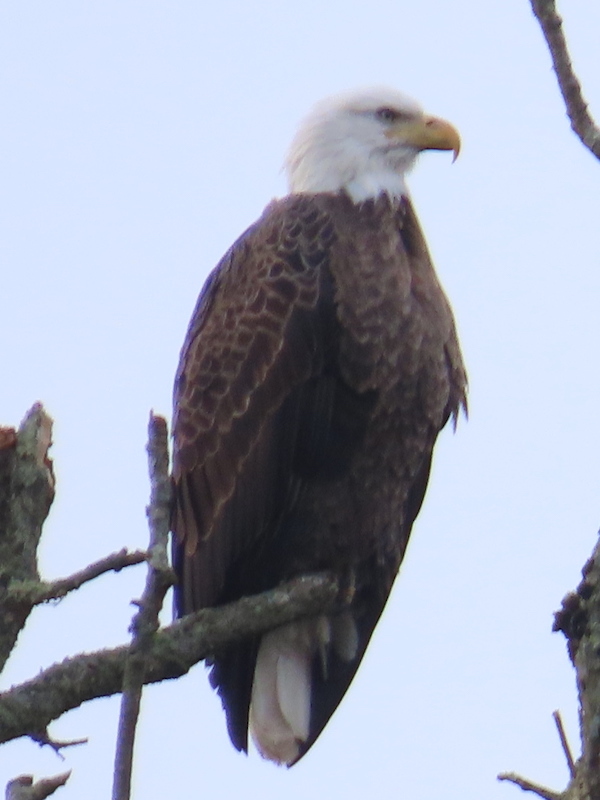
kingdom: Animalia
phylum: Chordata
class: Aves
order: Accipitriformes
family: Accipitridae
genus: Haliaeetus
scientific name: Haliaeetus leucocephalus
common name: Bald eagle
